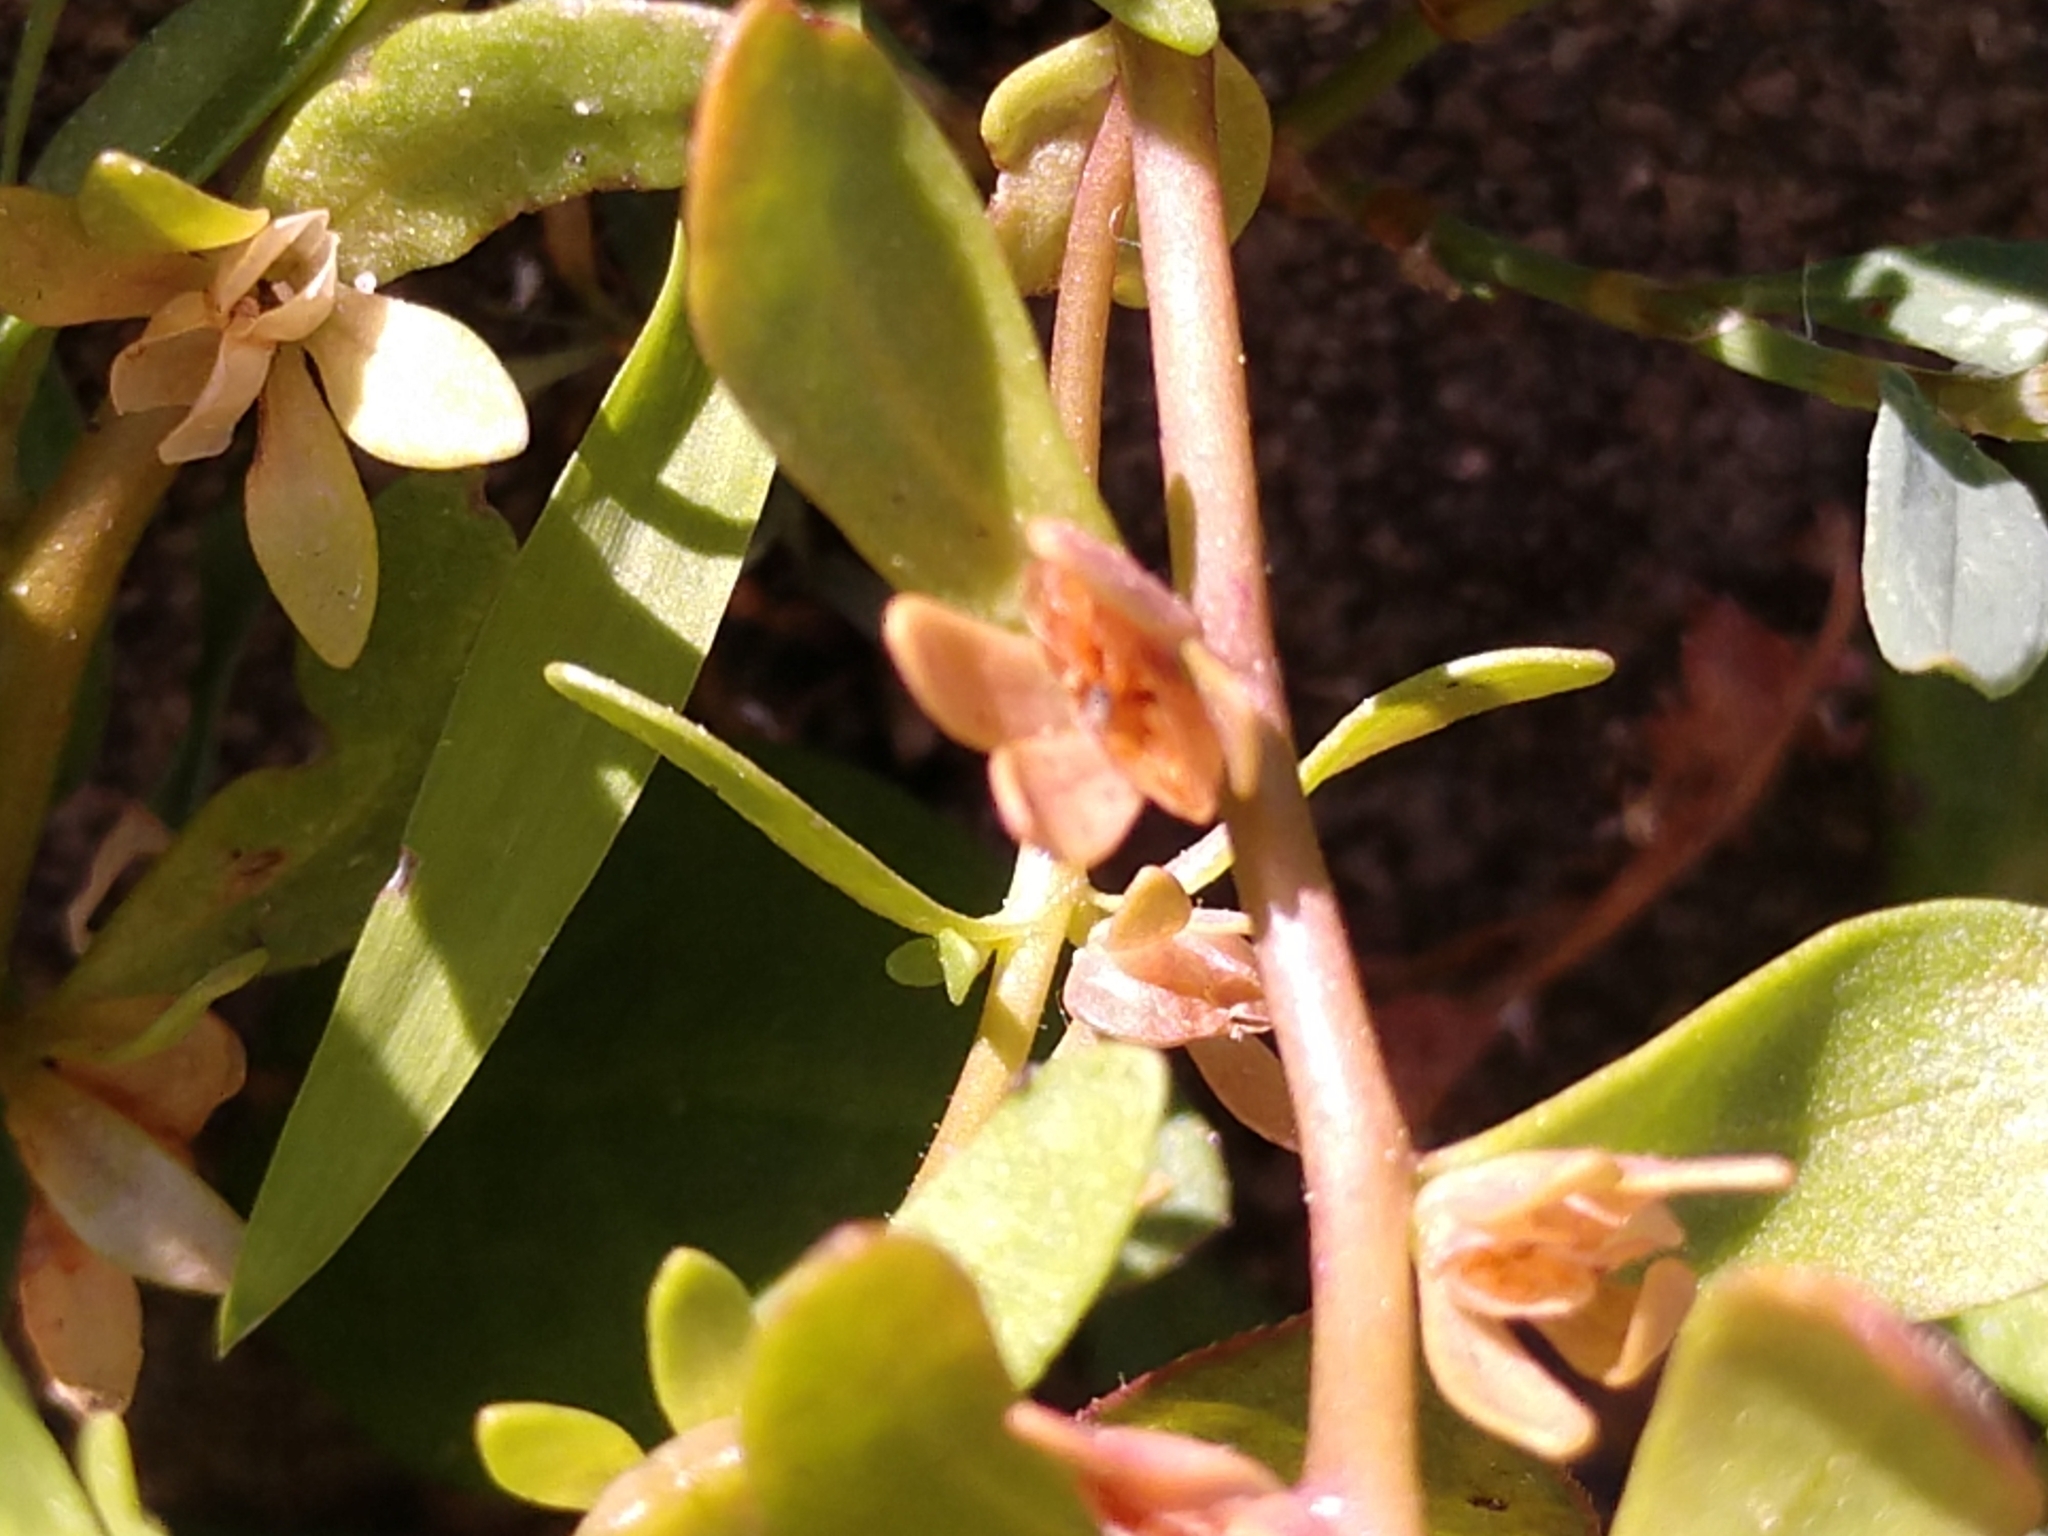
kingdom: Plantae
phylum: Tracheophyta
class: Magnoliopsida
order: Lamiales
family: Plantaginaceae
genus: Veronica
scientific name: Veronica peregrina
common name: Neckweed
